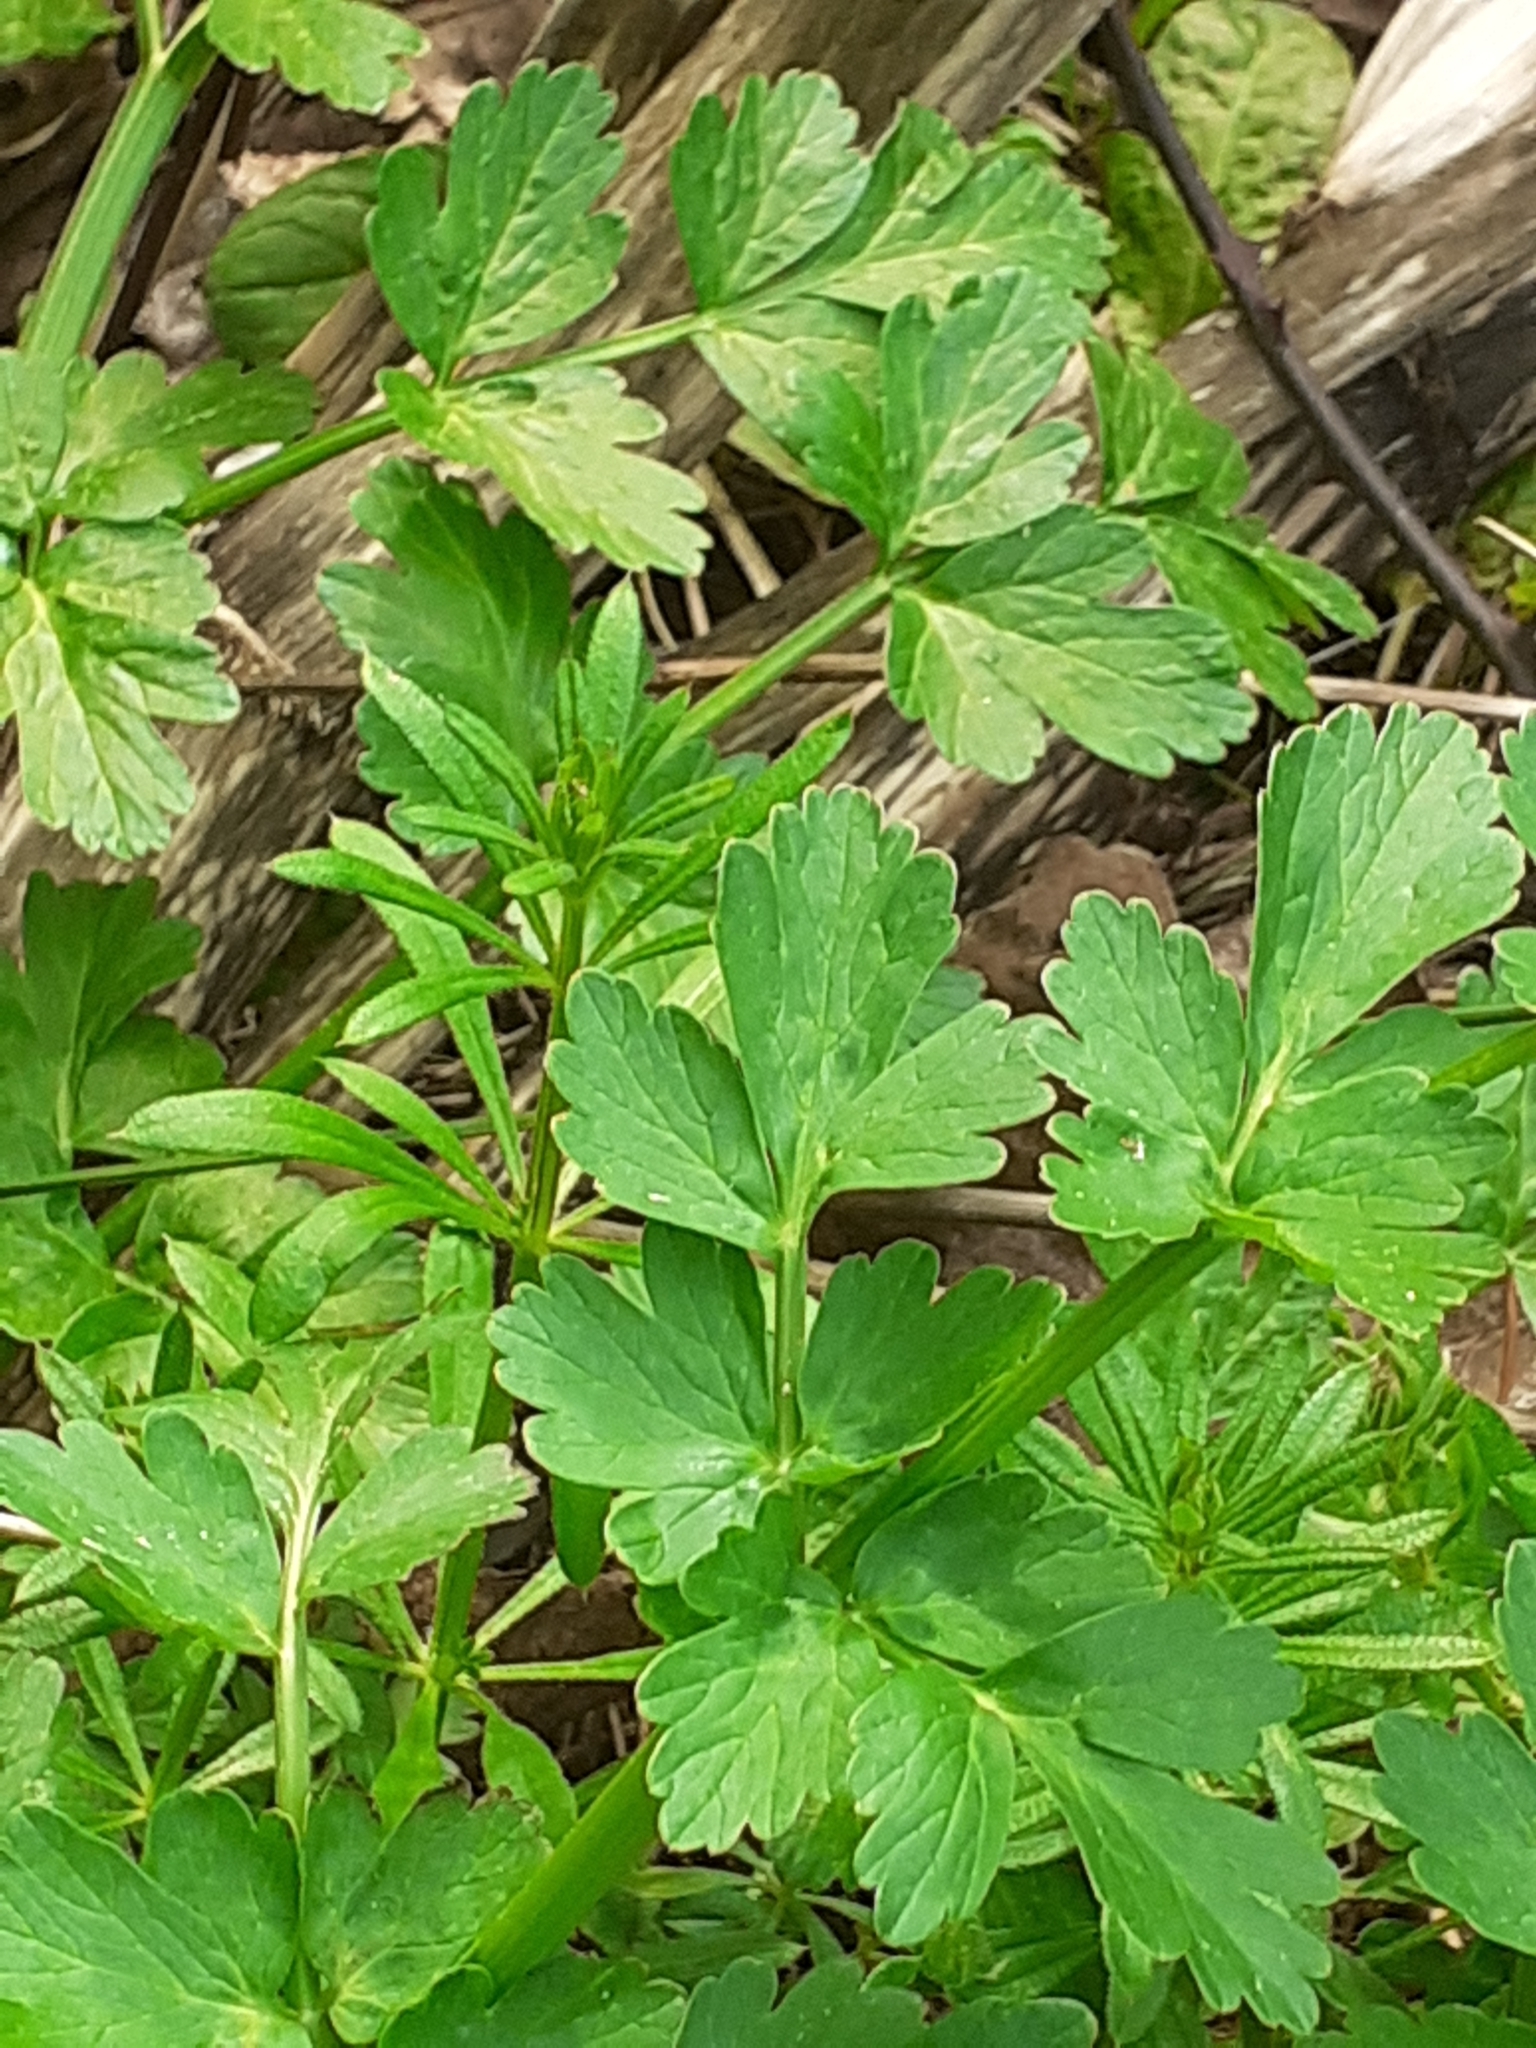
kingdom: Plantae
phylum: Tracheophyta
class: Magnoliopsida
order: Apiales
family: Apiaceae
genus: Oenanthe
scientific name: Oenanthe crocata
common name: Hemlock water-dropwort
